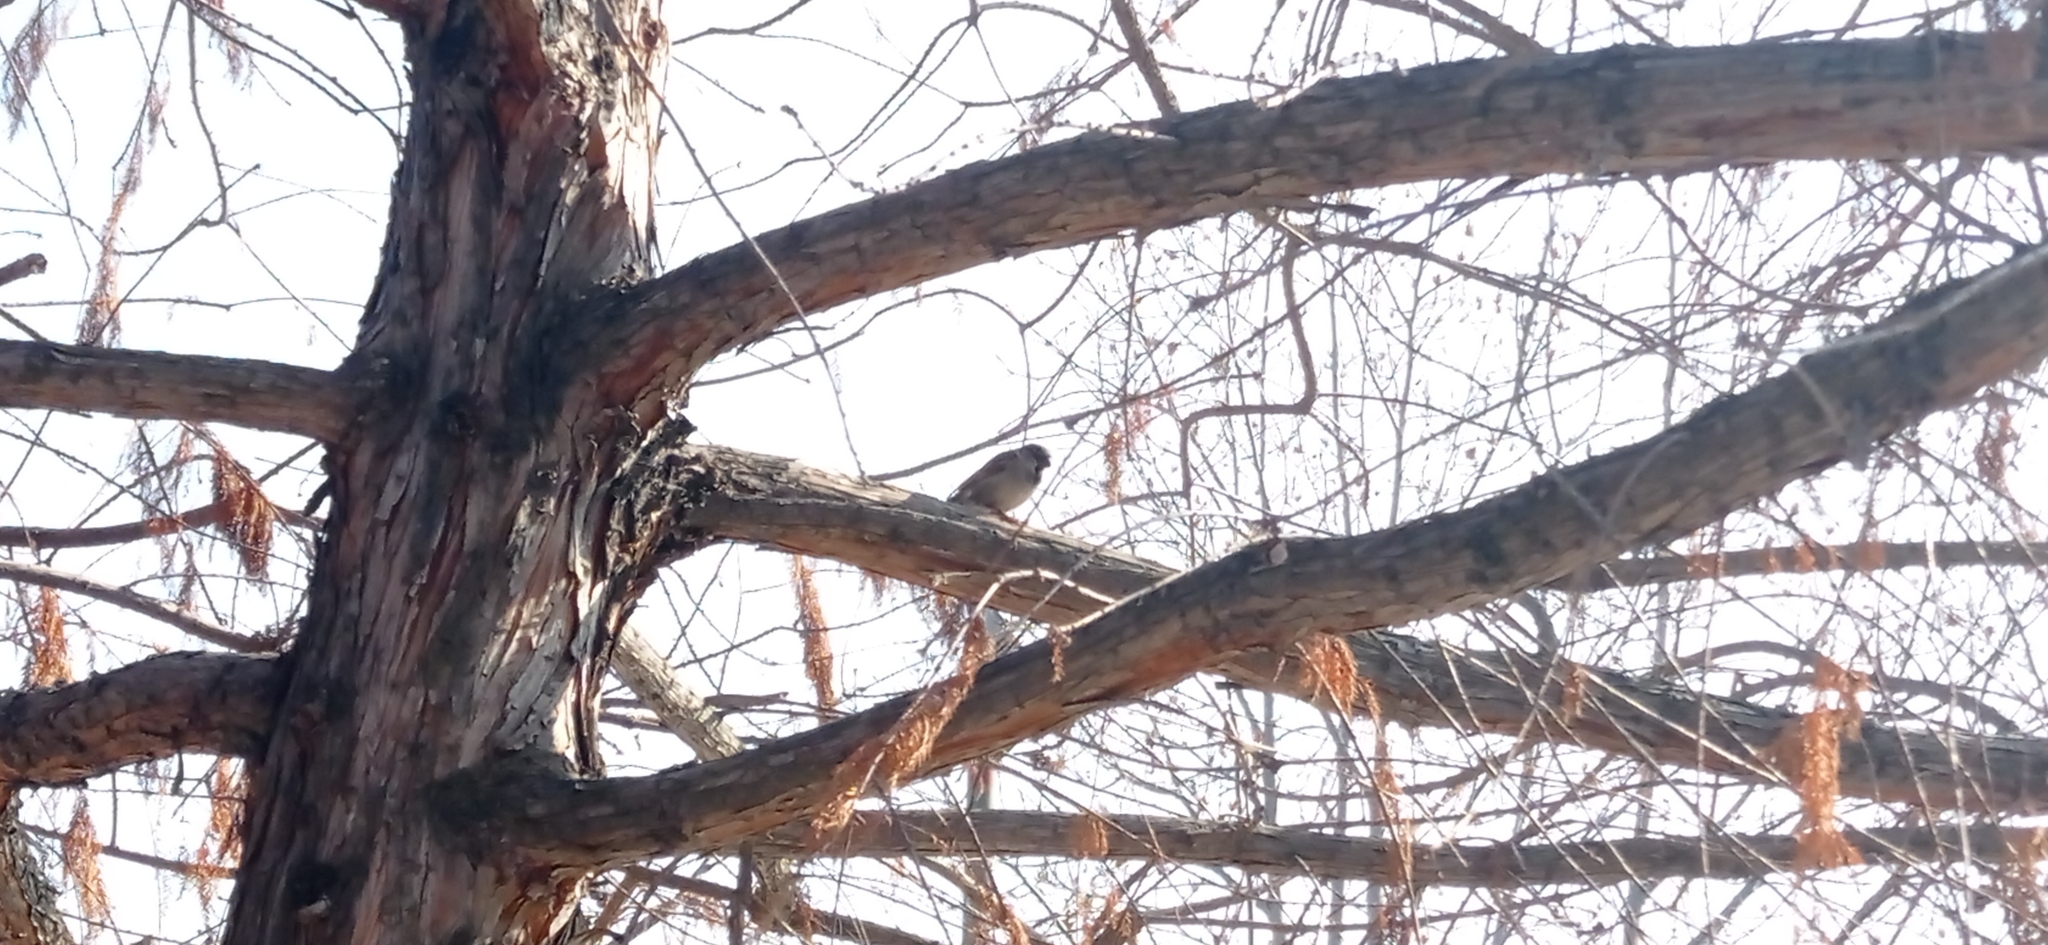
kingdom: Animalia
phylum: Chordata
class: Aves
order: Passeriformes
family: Passeridae
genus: Passer
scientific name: Passer domesticus
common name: House sparrow
